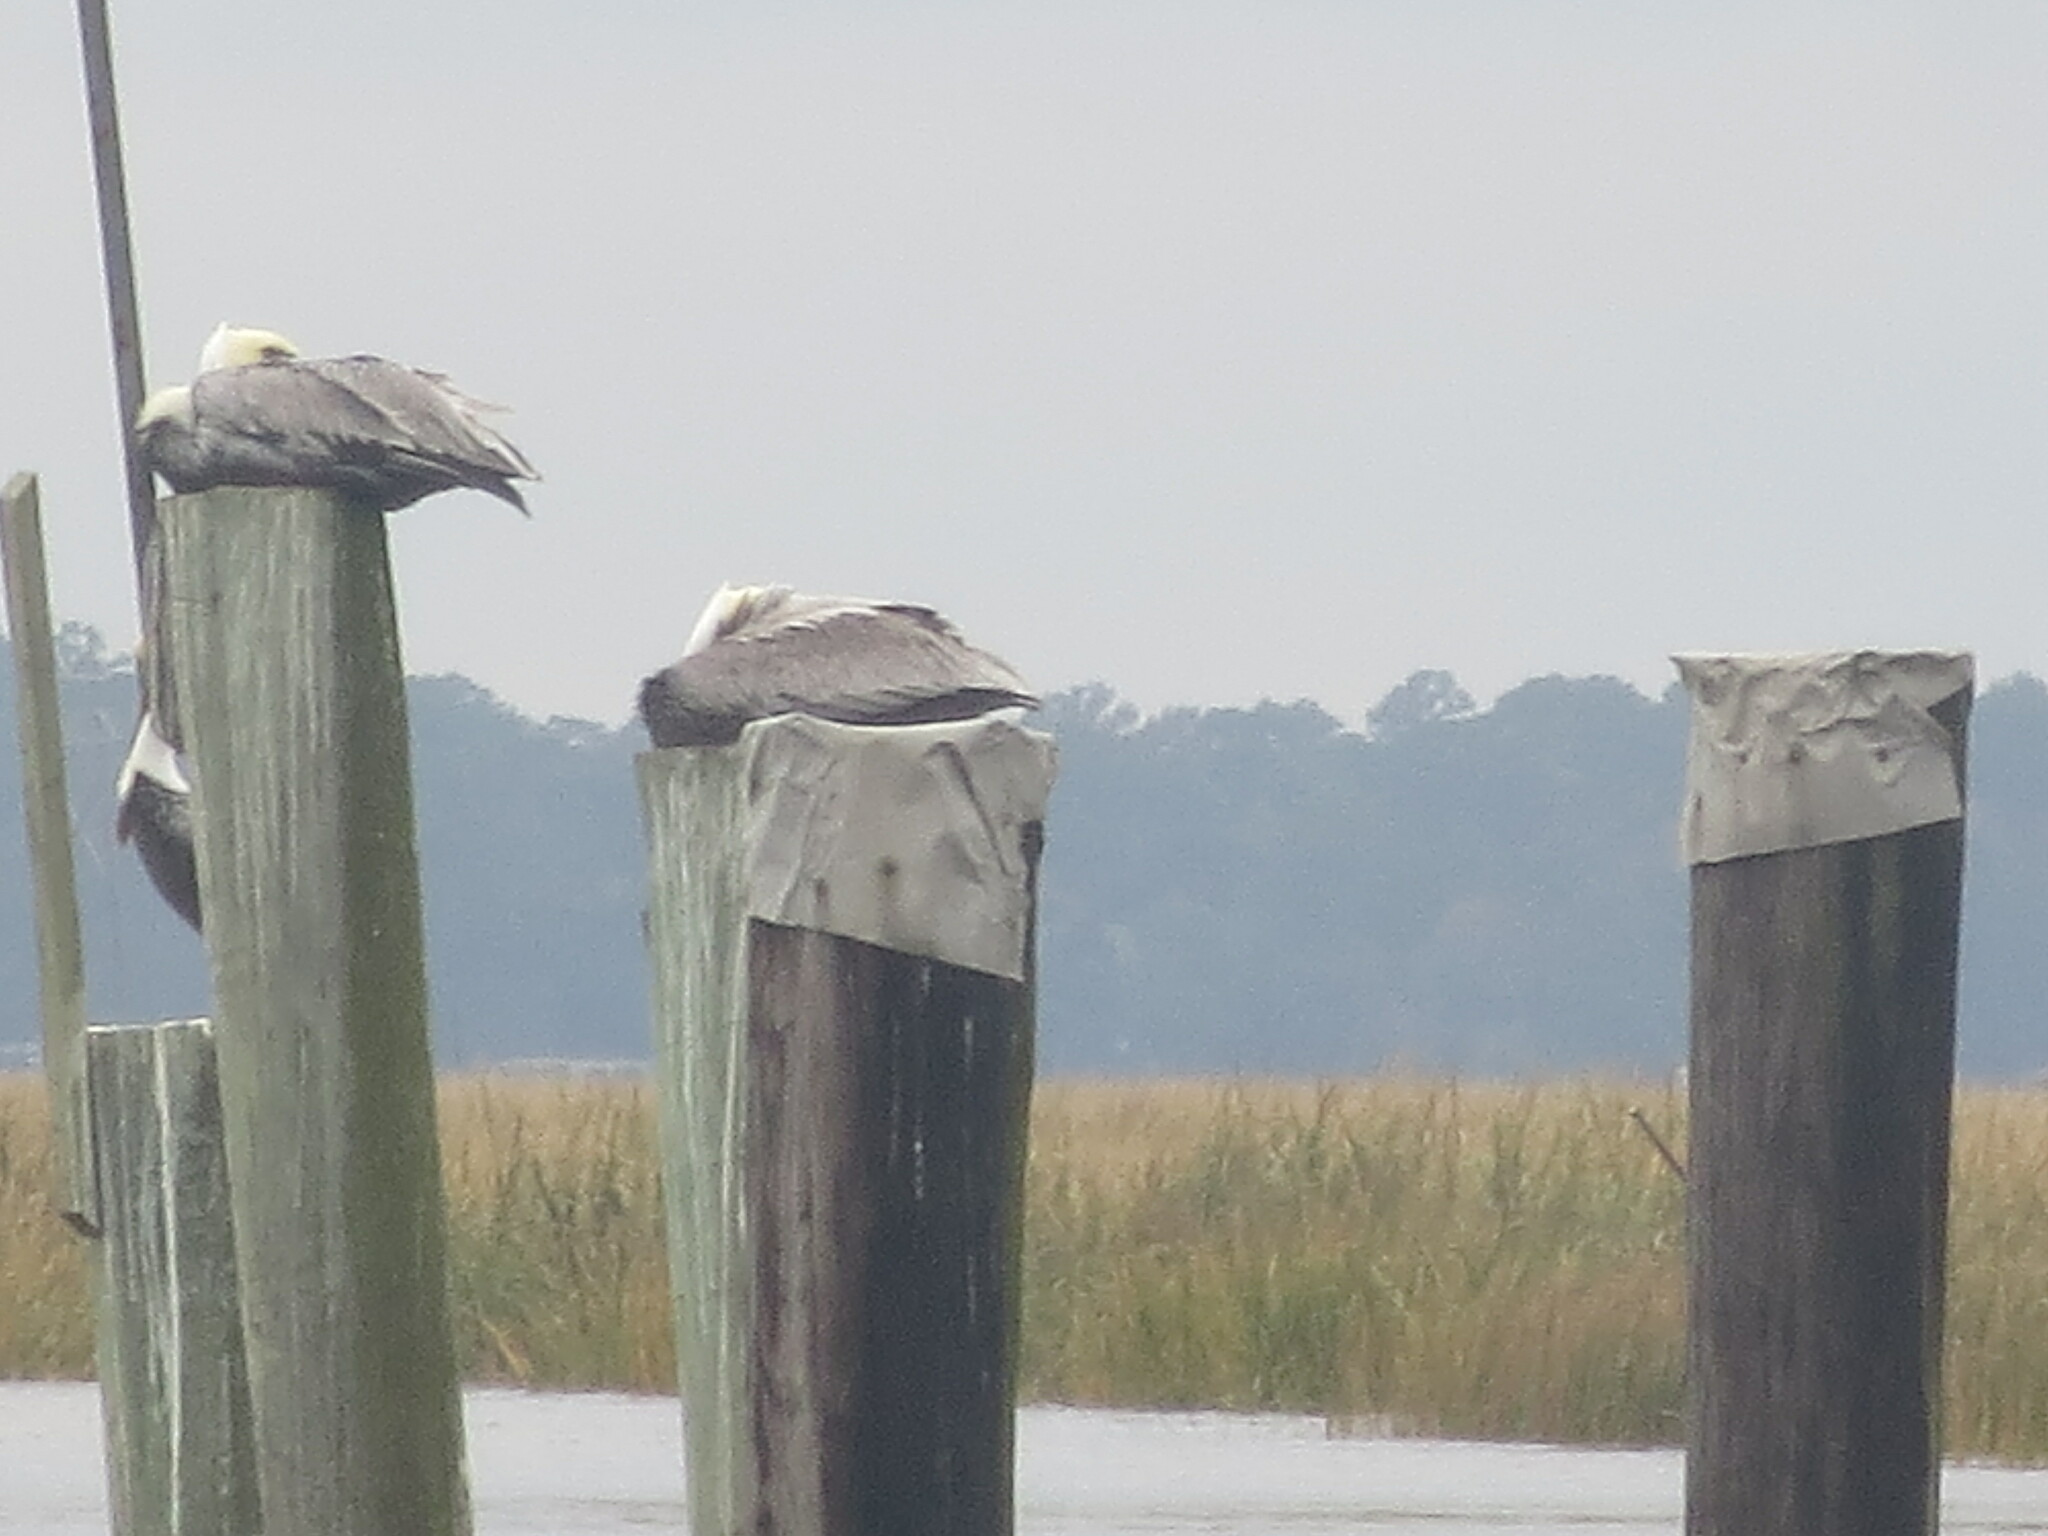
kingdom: Animalia
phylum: Chordata
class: Aves
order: Pelecaniformes
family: Pelecanidae
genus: Pelecanus
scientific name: Pelecanus occidentalis
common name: Brown pelican
